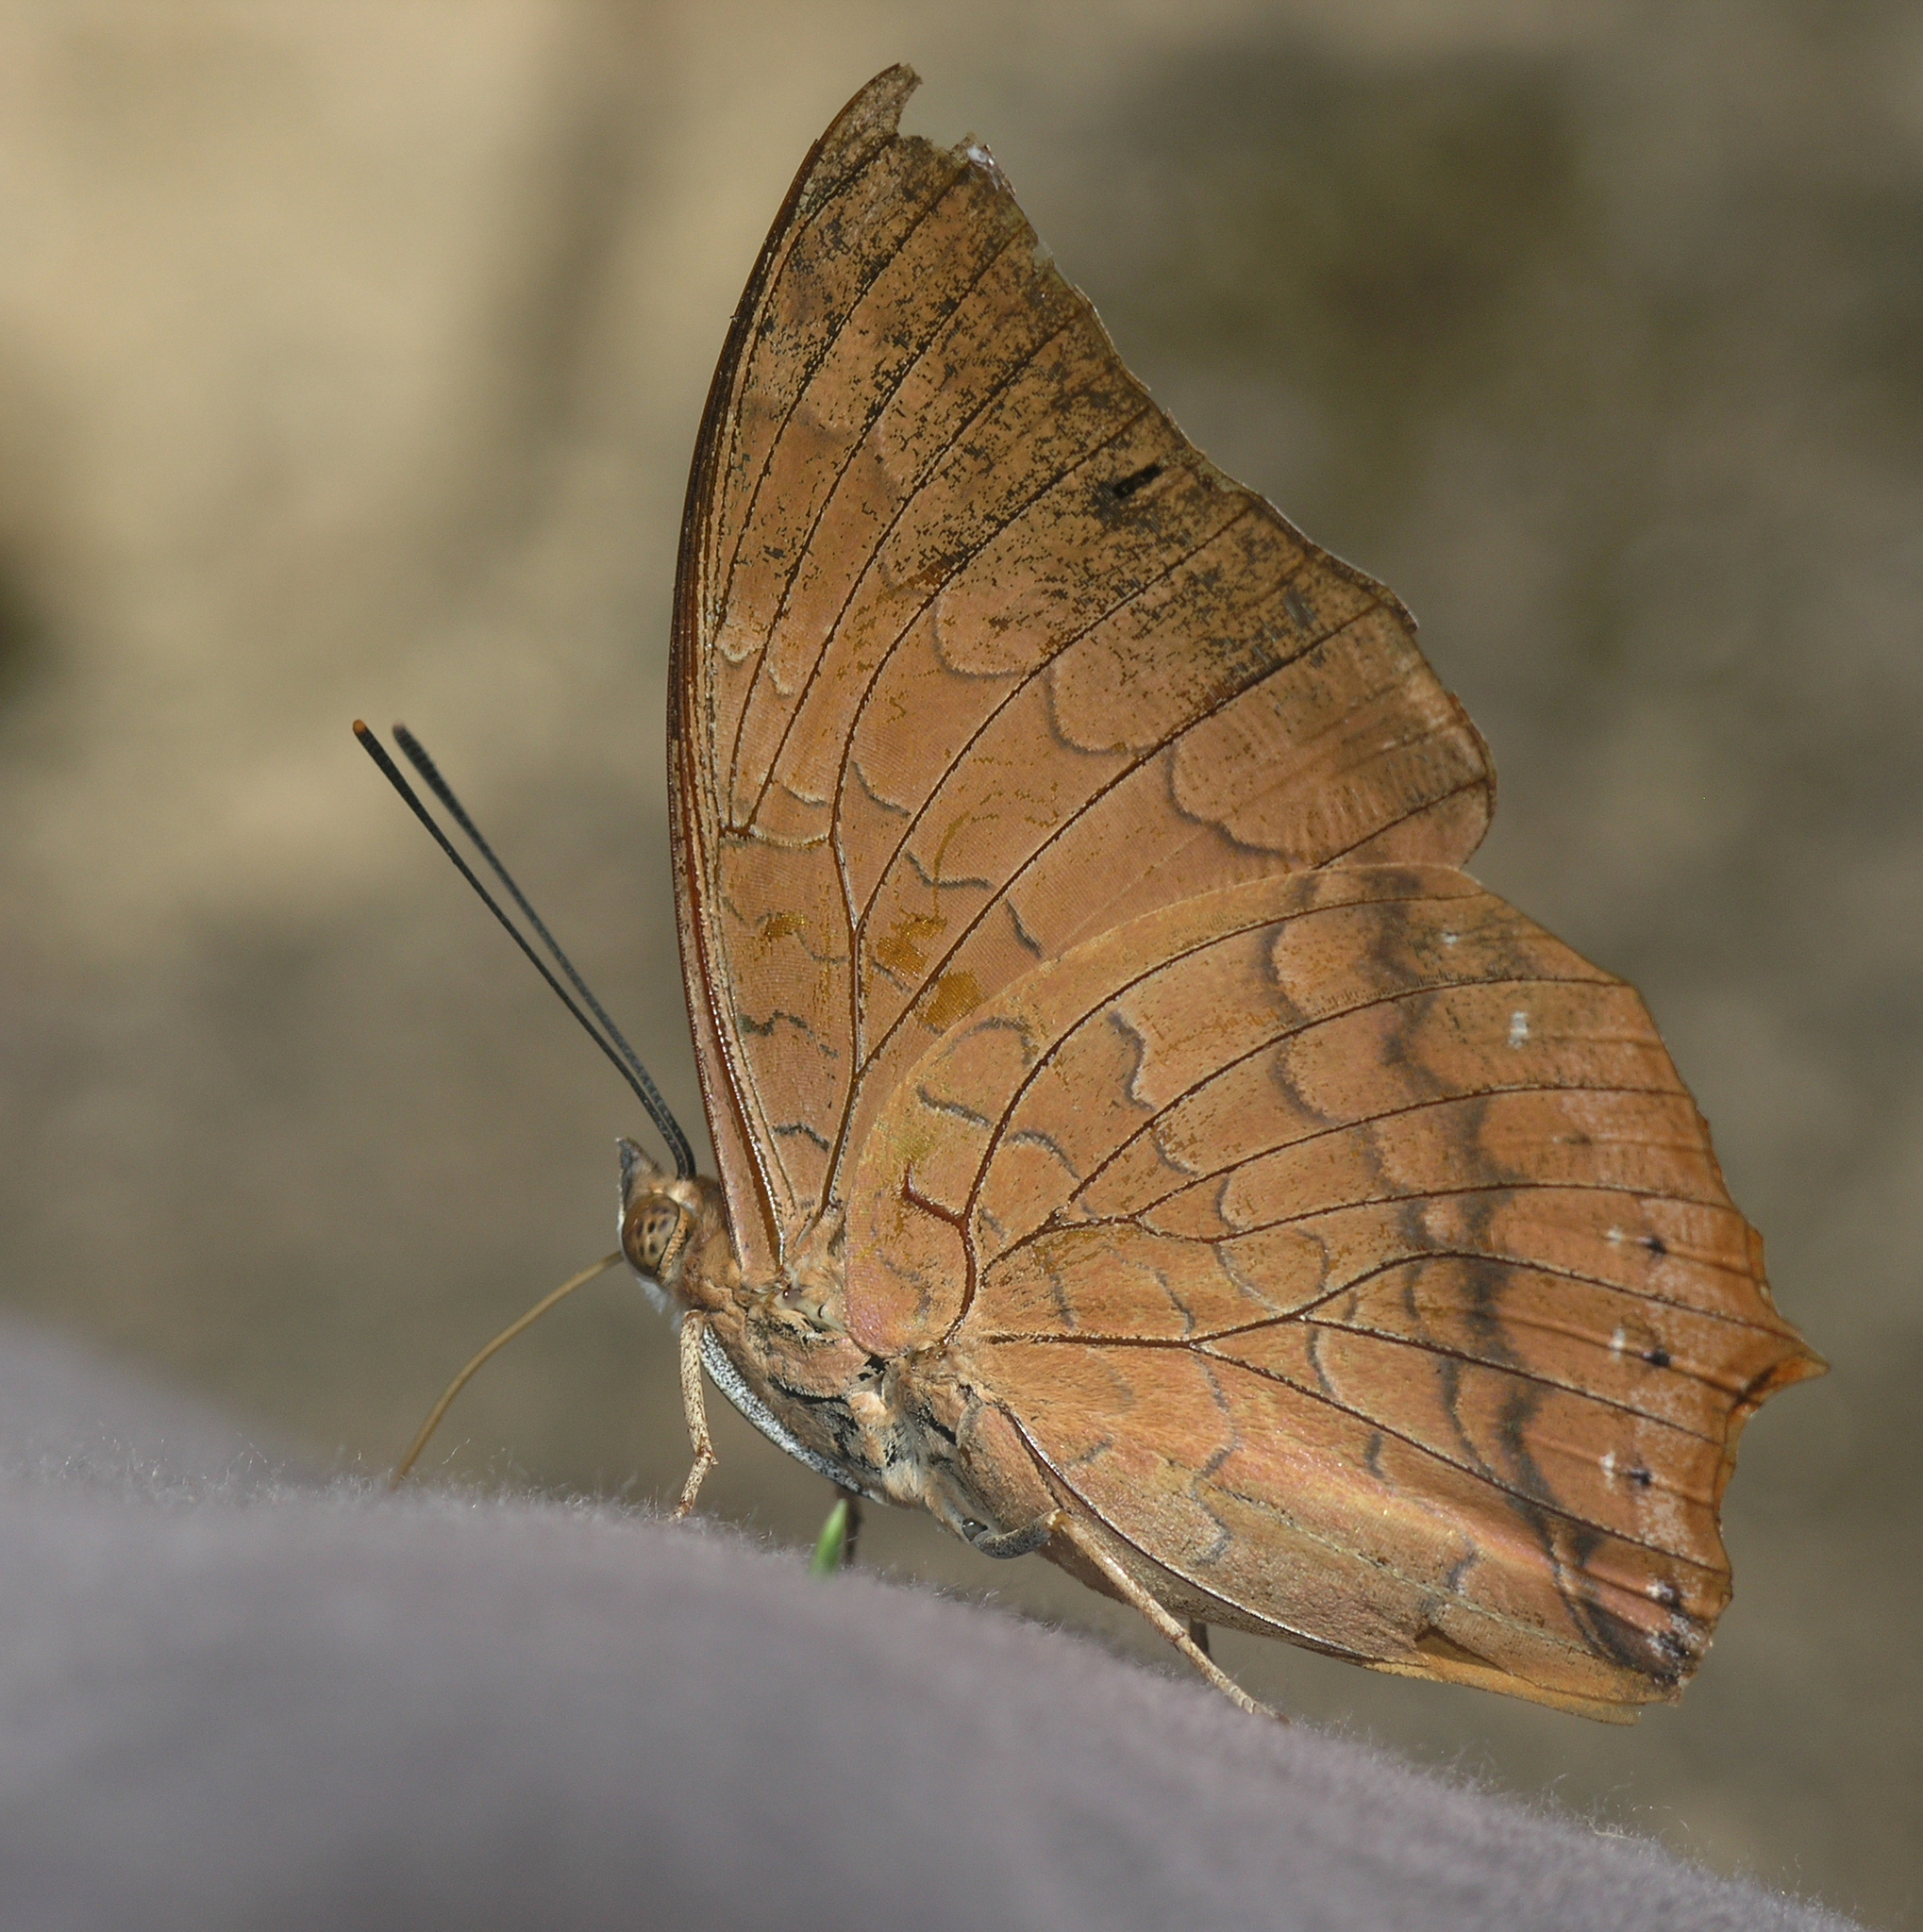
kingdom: Animalia
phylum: Arthropoda
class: Insecta
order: Lepidoptera
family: Nymphalidae
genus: Charaxes
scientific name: Charaxes bernardus
